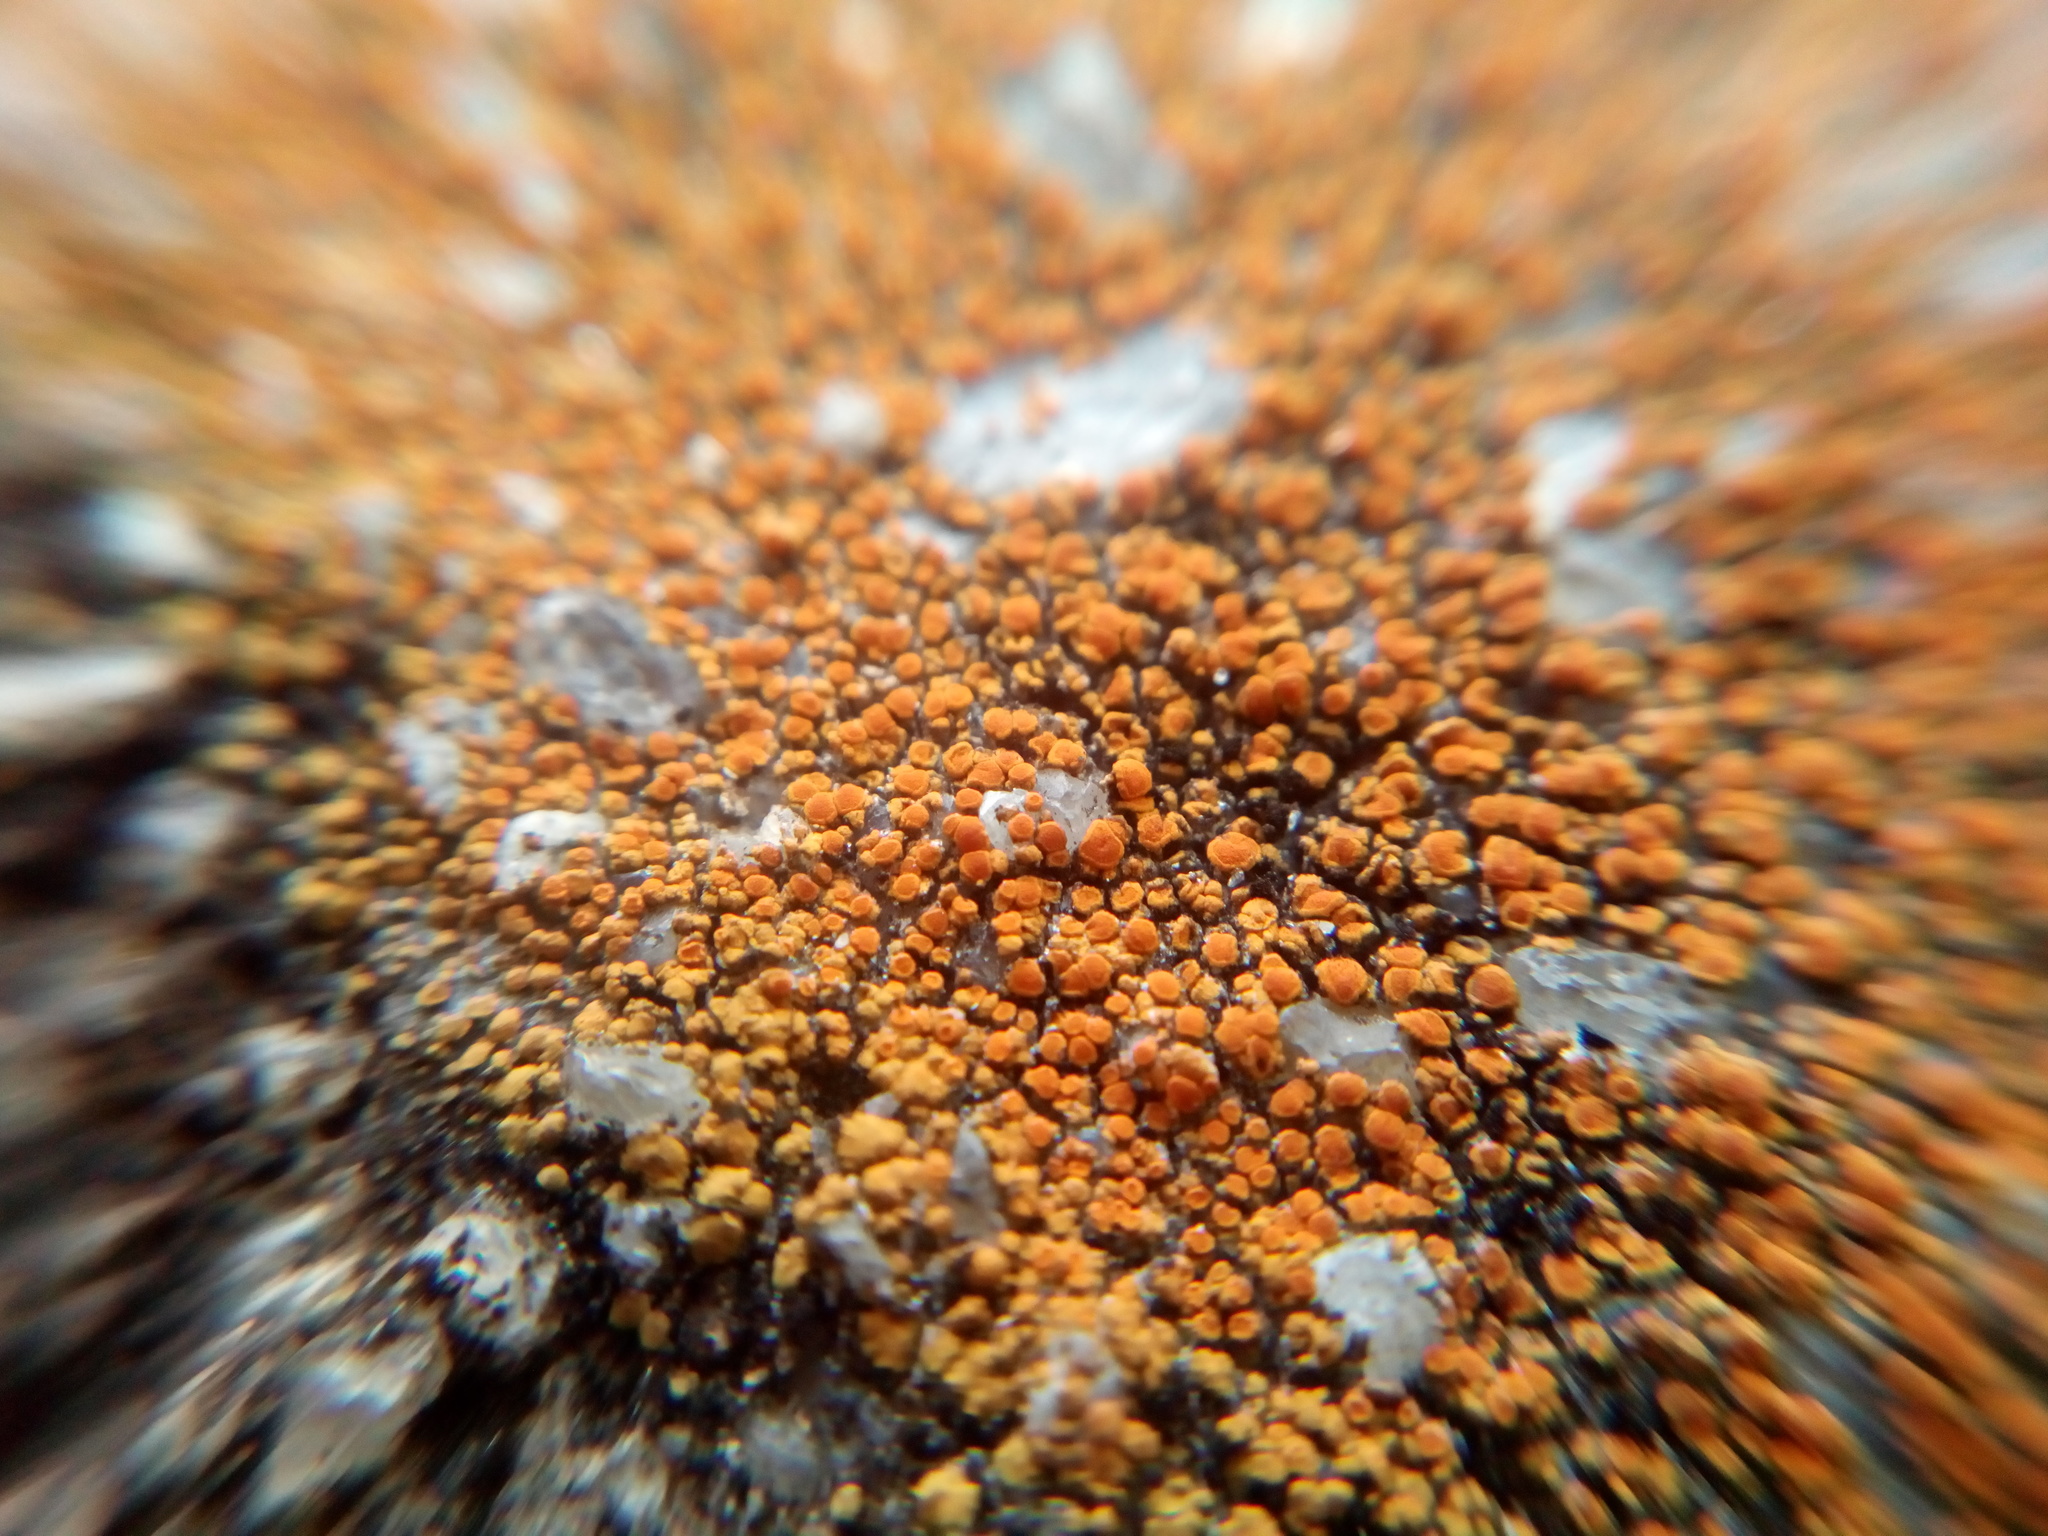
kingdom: Fungi
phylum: Ascomycota
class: Lecanoromycetes
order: Teloschistales
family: Teloschistaceae
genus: Xanthocarpia
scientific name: Xanthocarpia feracissima
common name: Sidewalk firedot
